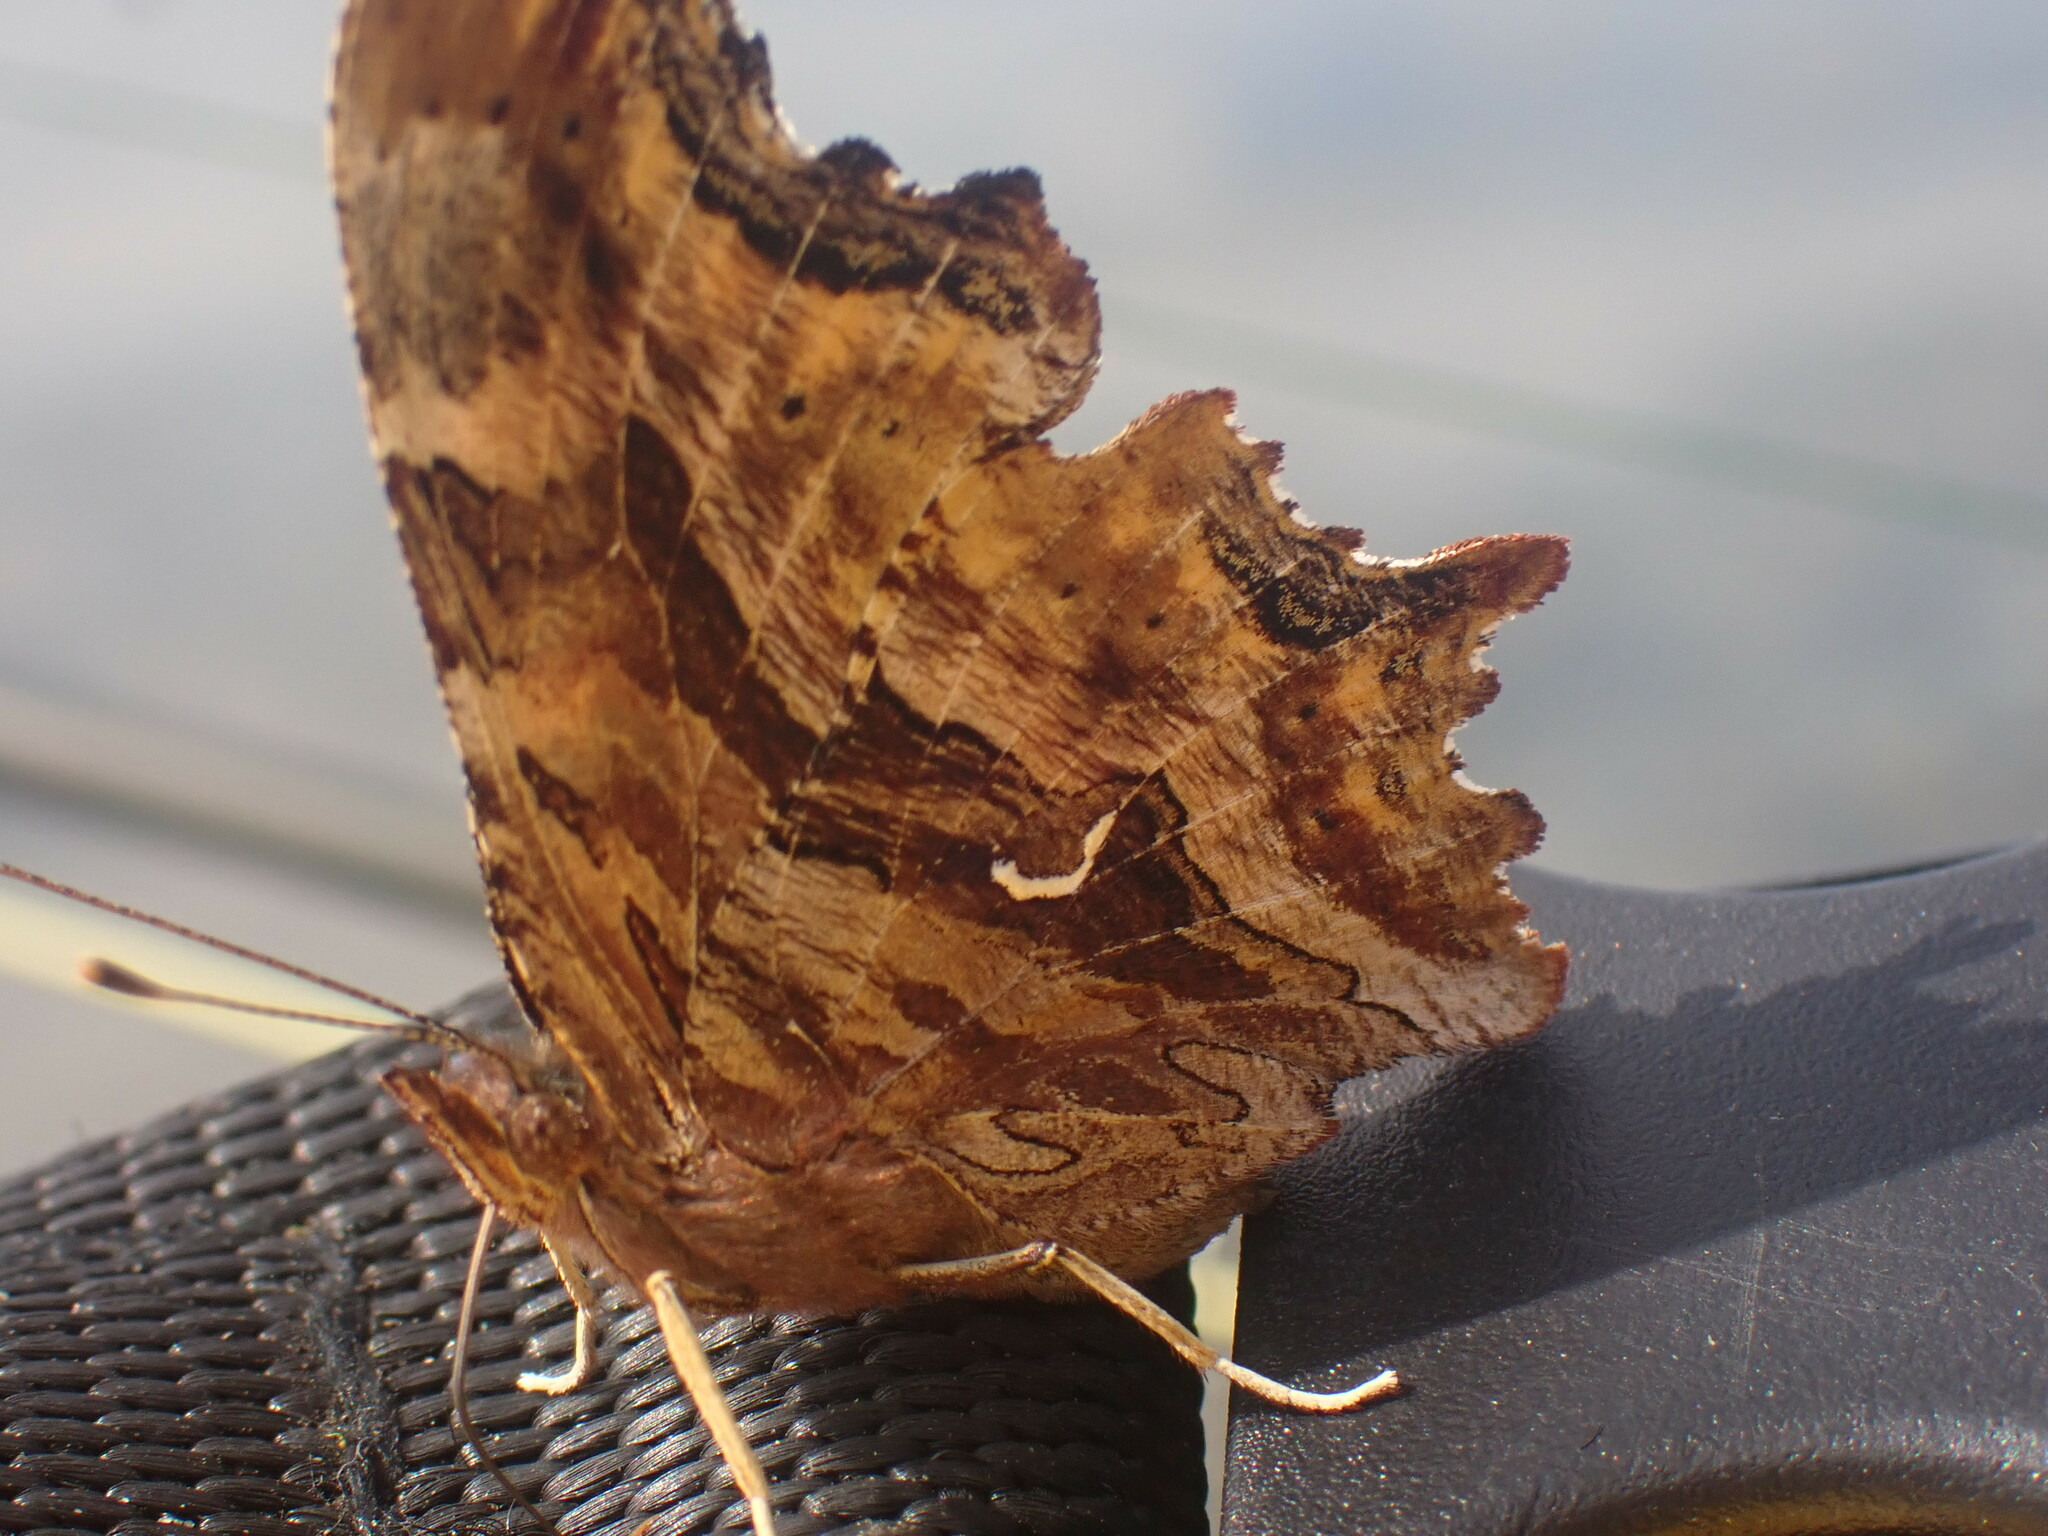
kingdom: Animalia
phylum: Arthropoda
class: Insecta
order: Lepidoptera
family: Nymphalidae
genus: Polygonia
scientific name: Polygonia satyrus
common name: Satyr angle wing
